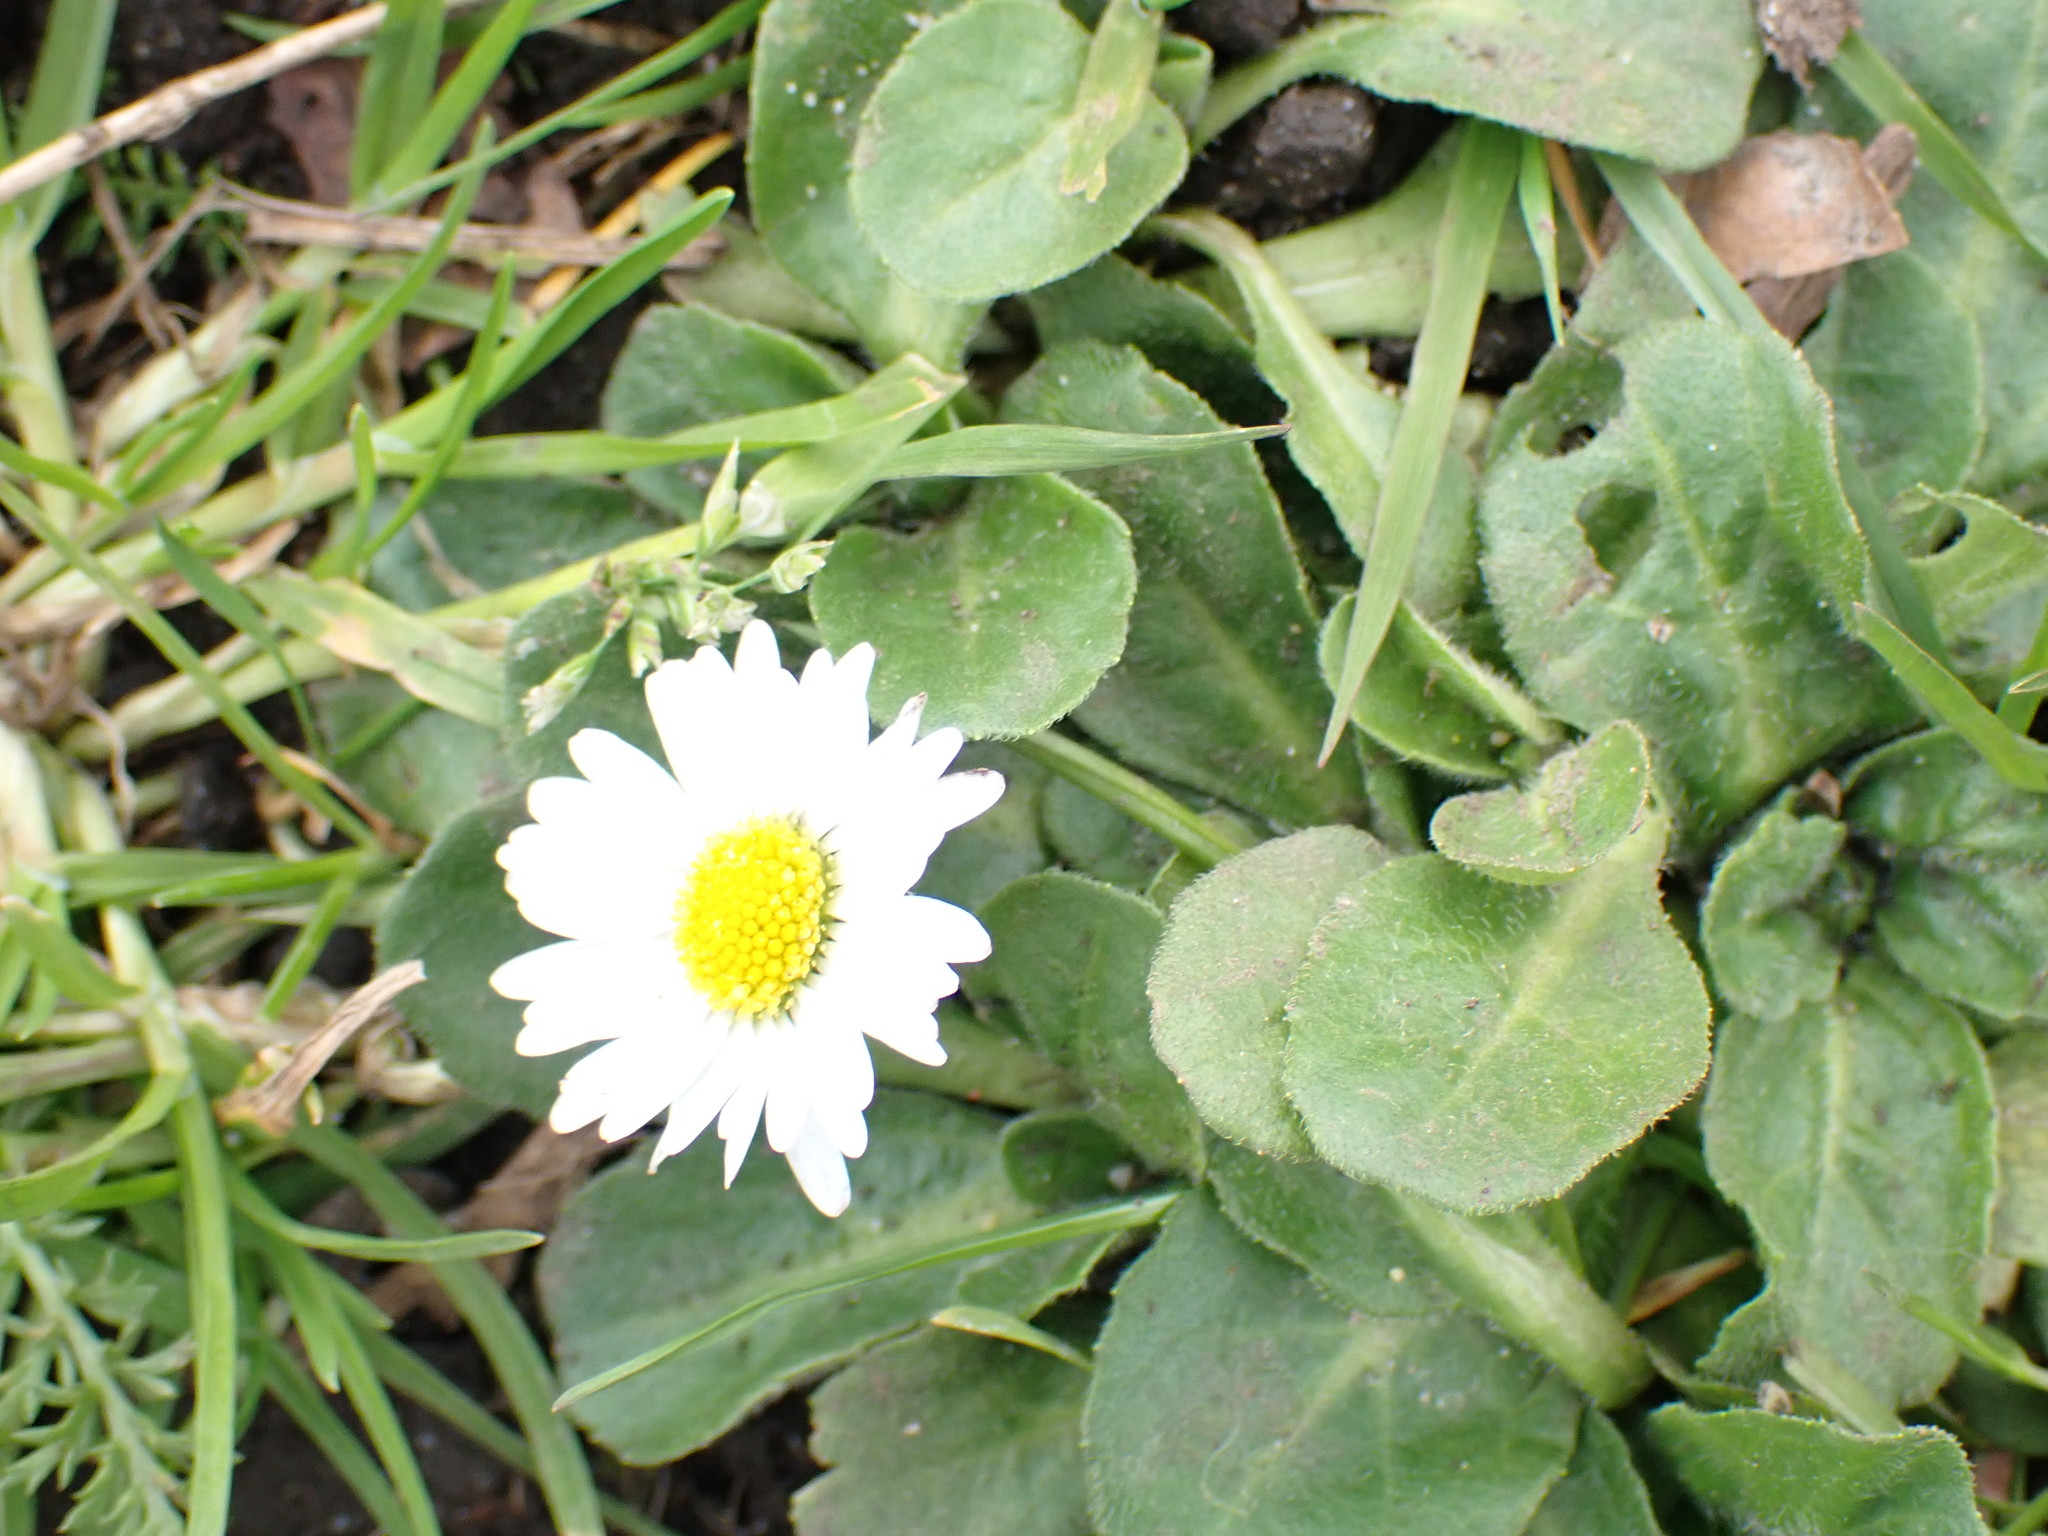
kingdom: Plantae
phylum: Tracheophyta
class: Magnoliopsida
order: Asterales
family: Asteraceae
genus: Bellis
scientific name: Bellis perennis
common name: Lawndaisy
